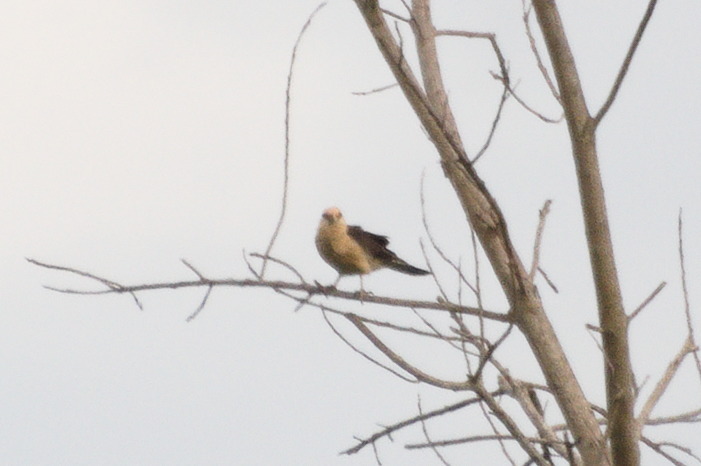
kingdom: Animalia
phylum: Chordata
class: Aves
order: Falconiformes
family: Falconidae
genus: Daptrius
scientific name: Daptrius
